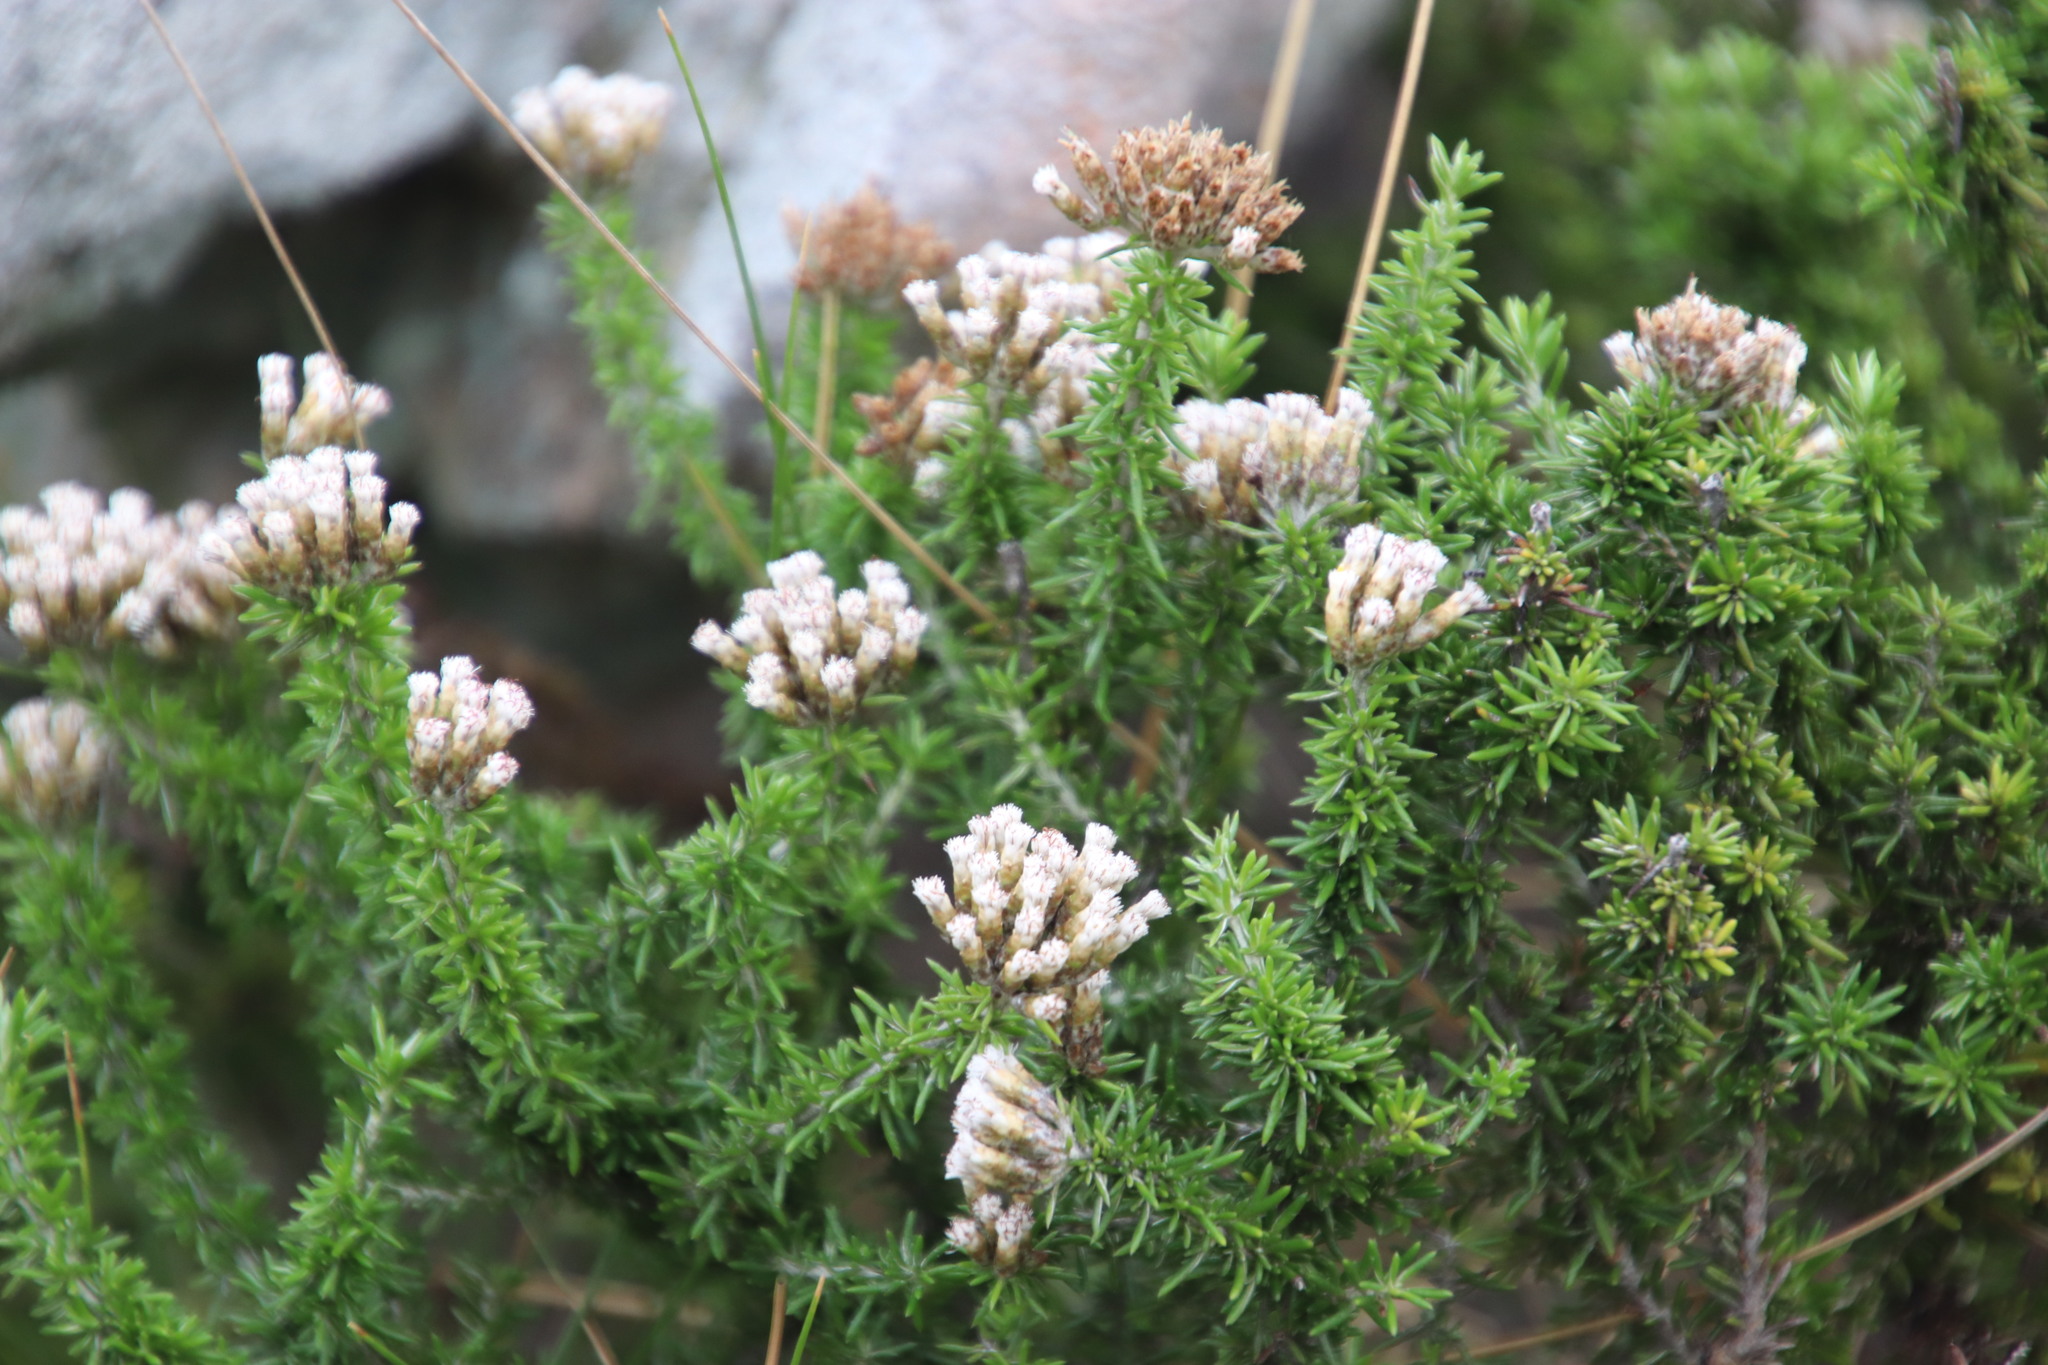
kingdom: Plantae
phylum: Tracheophyta
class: Magnoliopsida
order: Asterales
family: Asteraceae
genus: Metalasia
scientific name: Metalasia muricata
